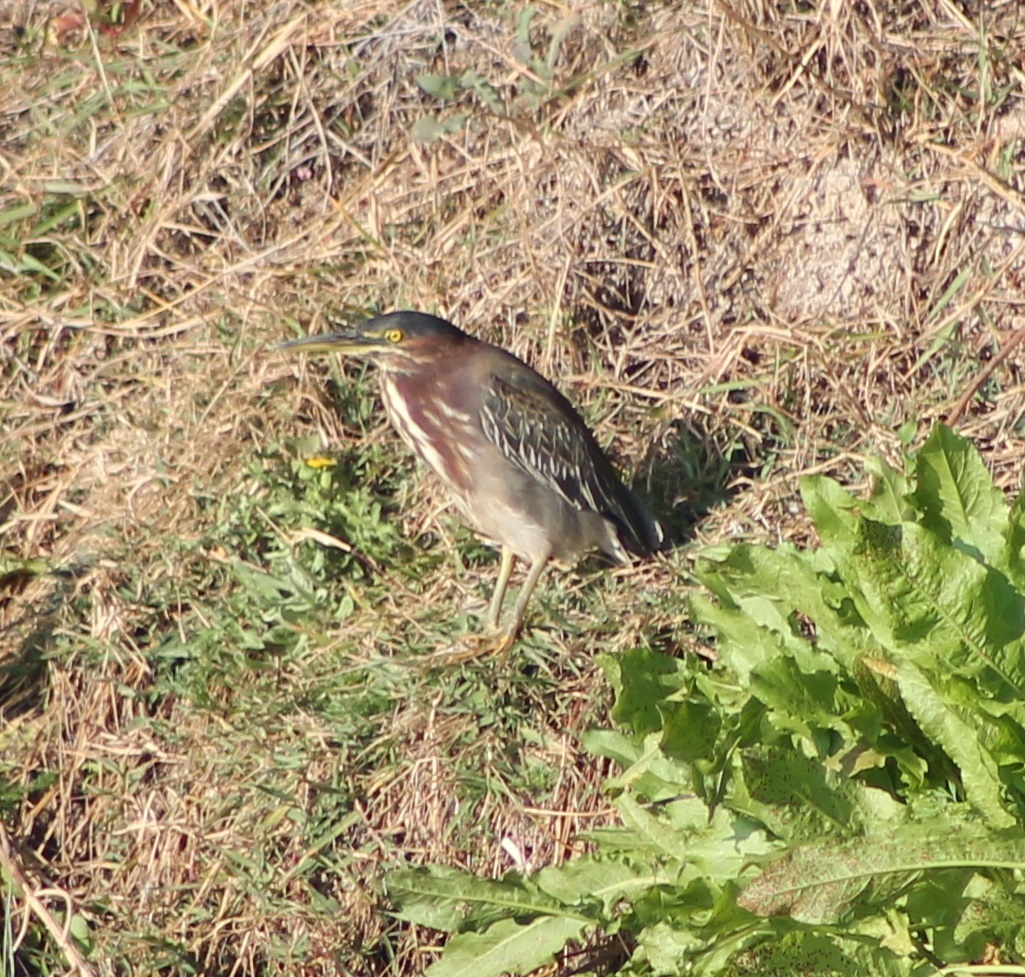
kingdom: Animalia
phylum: Chordata
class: Aves
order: Pelecaniformes
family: Ardeidae
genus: Butorides
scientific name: Butorides virescens
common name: Green heron
